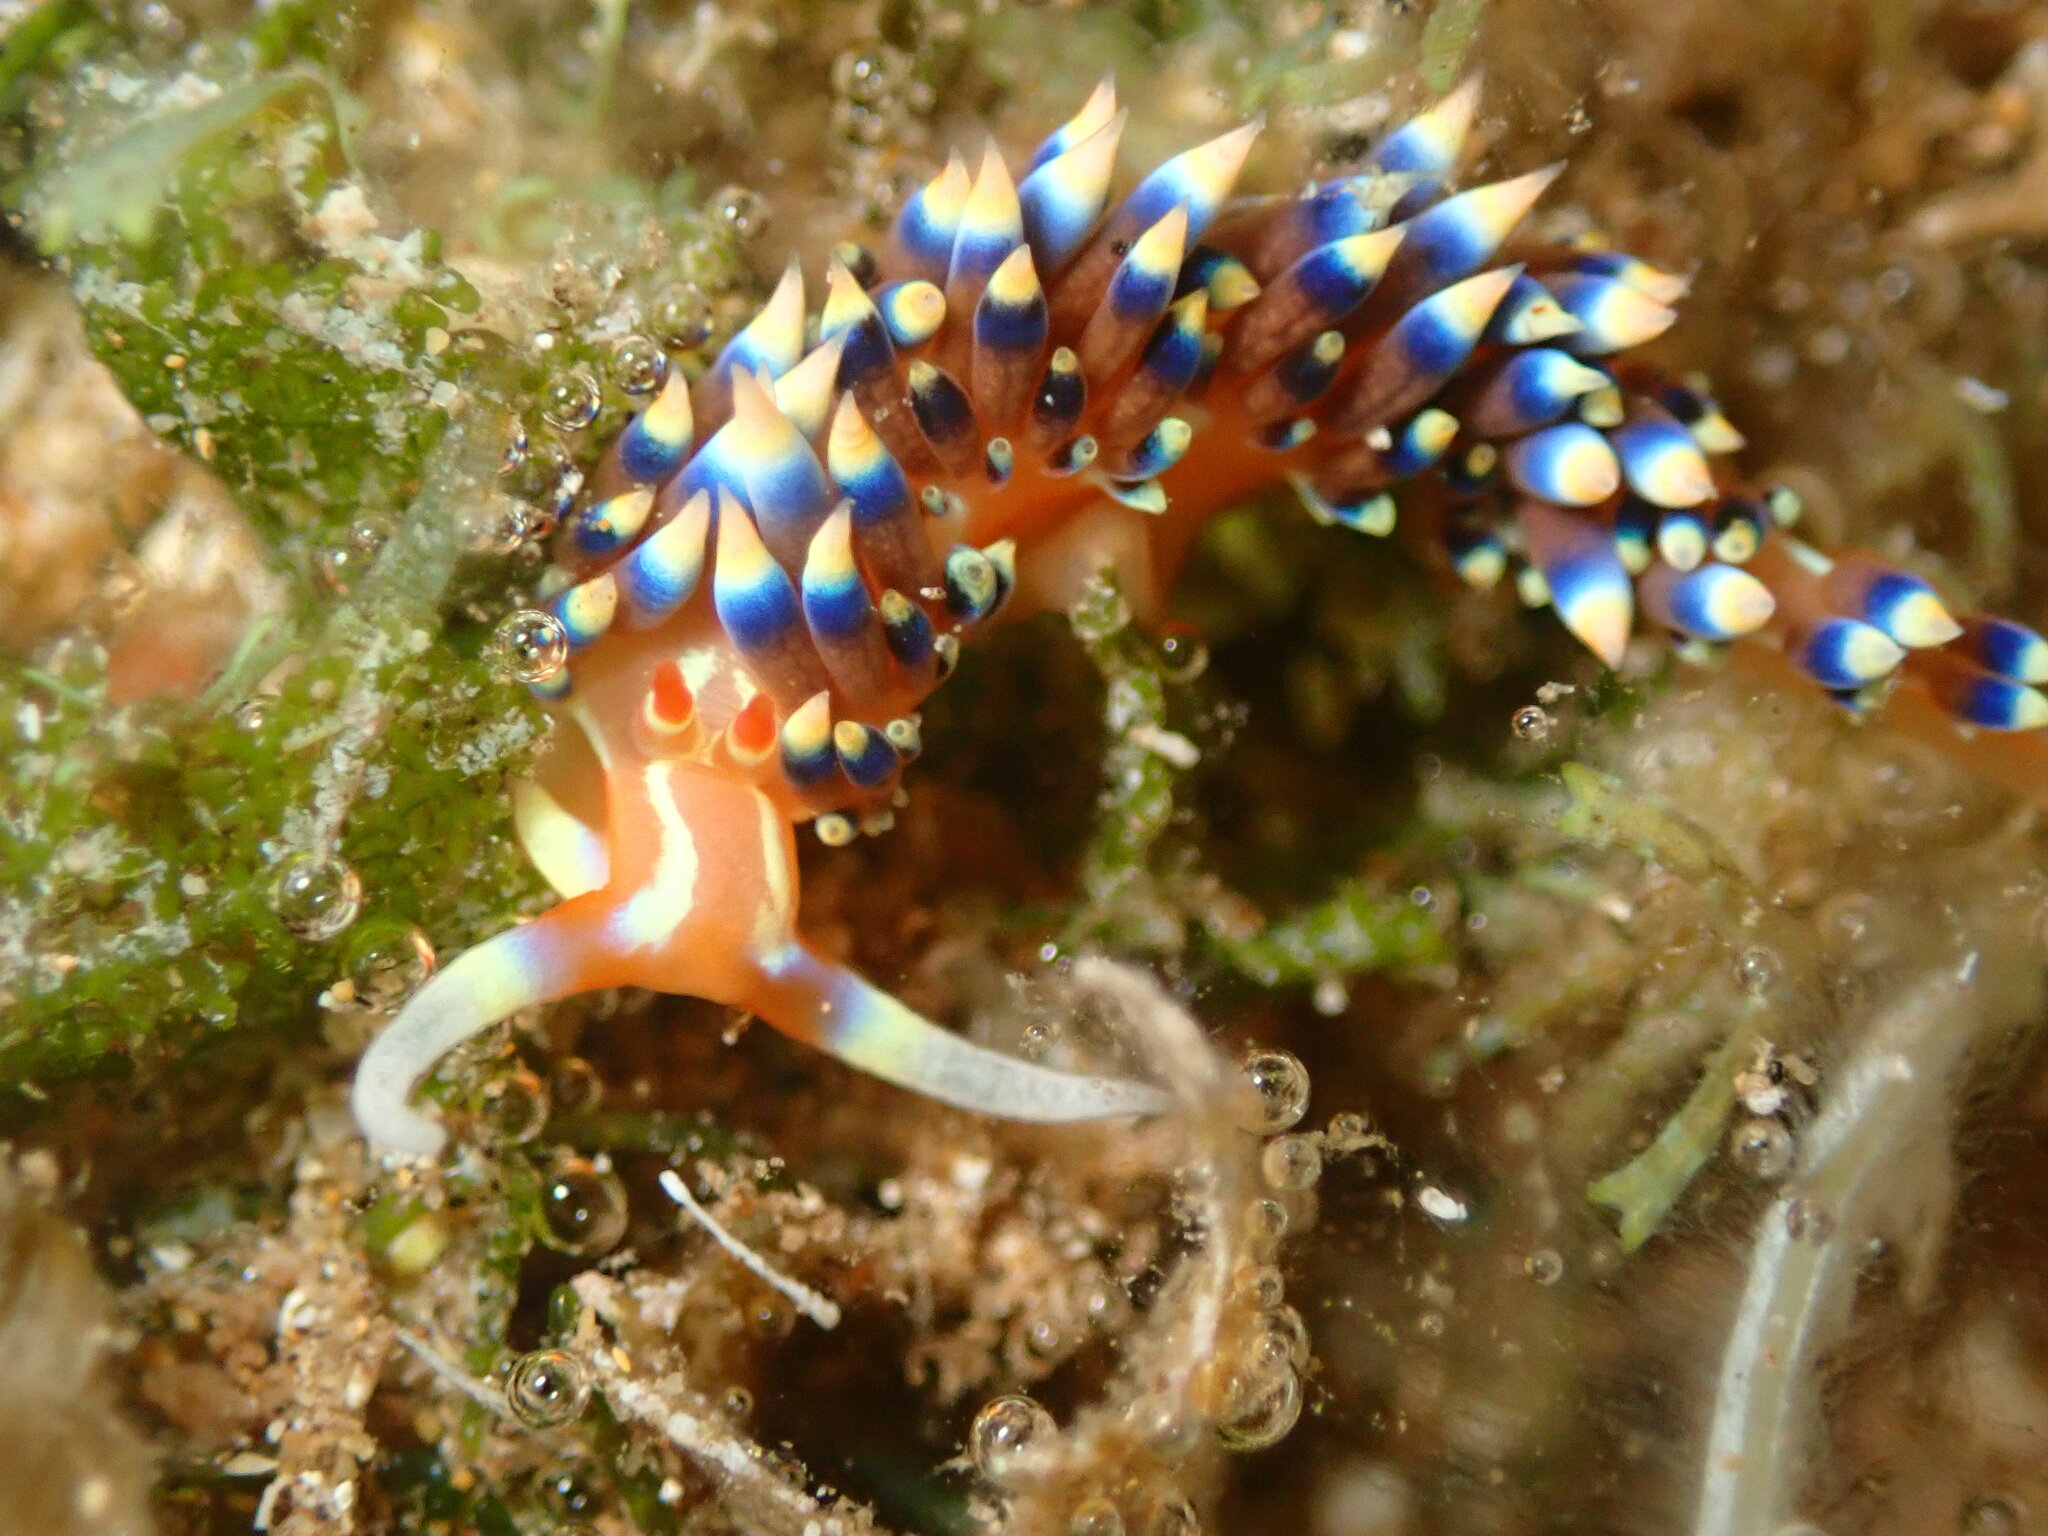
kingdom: Animalia
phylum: Mollusca
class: Gastropoda
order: Nudibranchia
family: Facelinidae
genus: Caloria
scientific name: Caloria indica
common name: Sea slug
